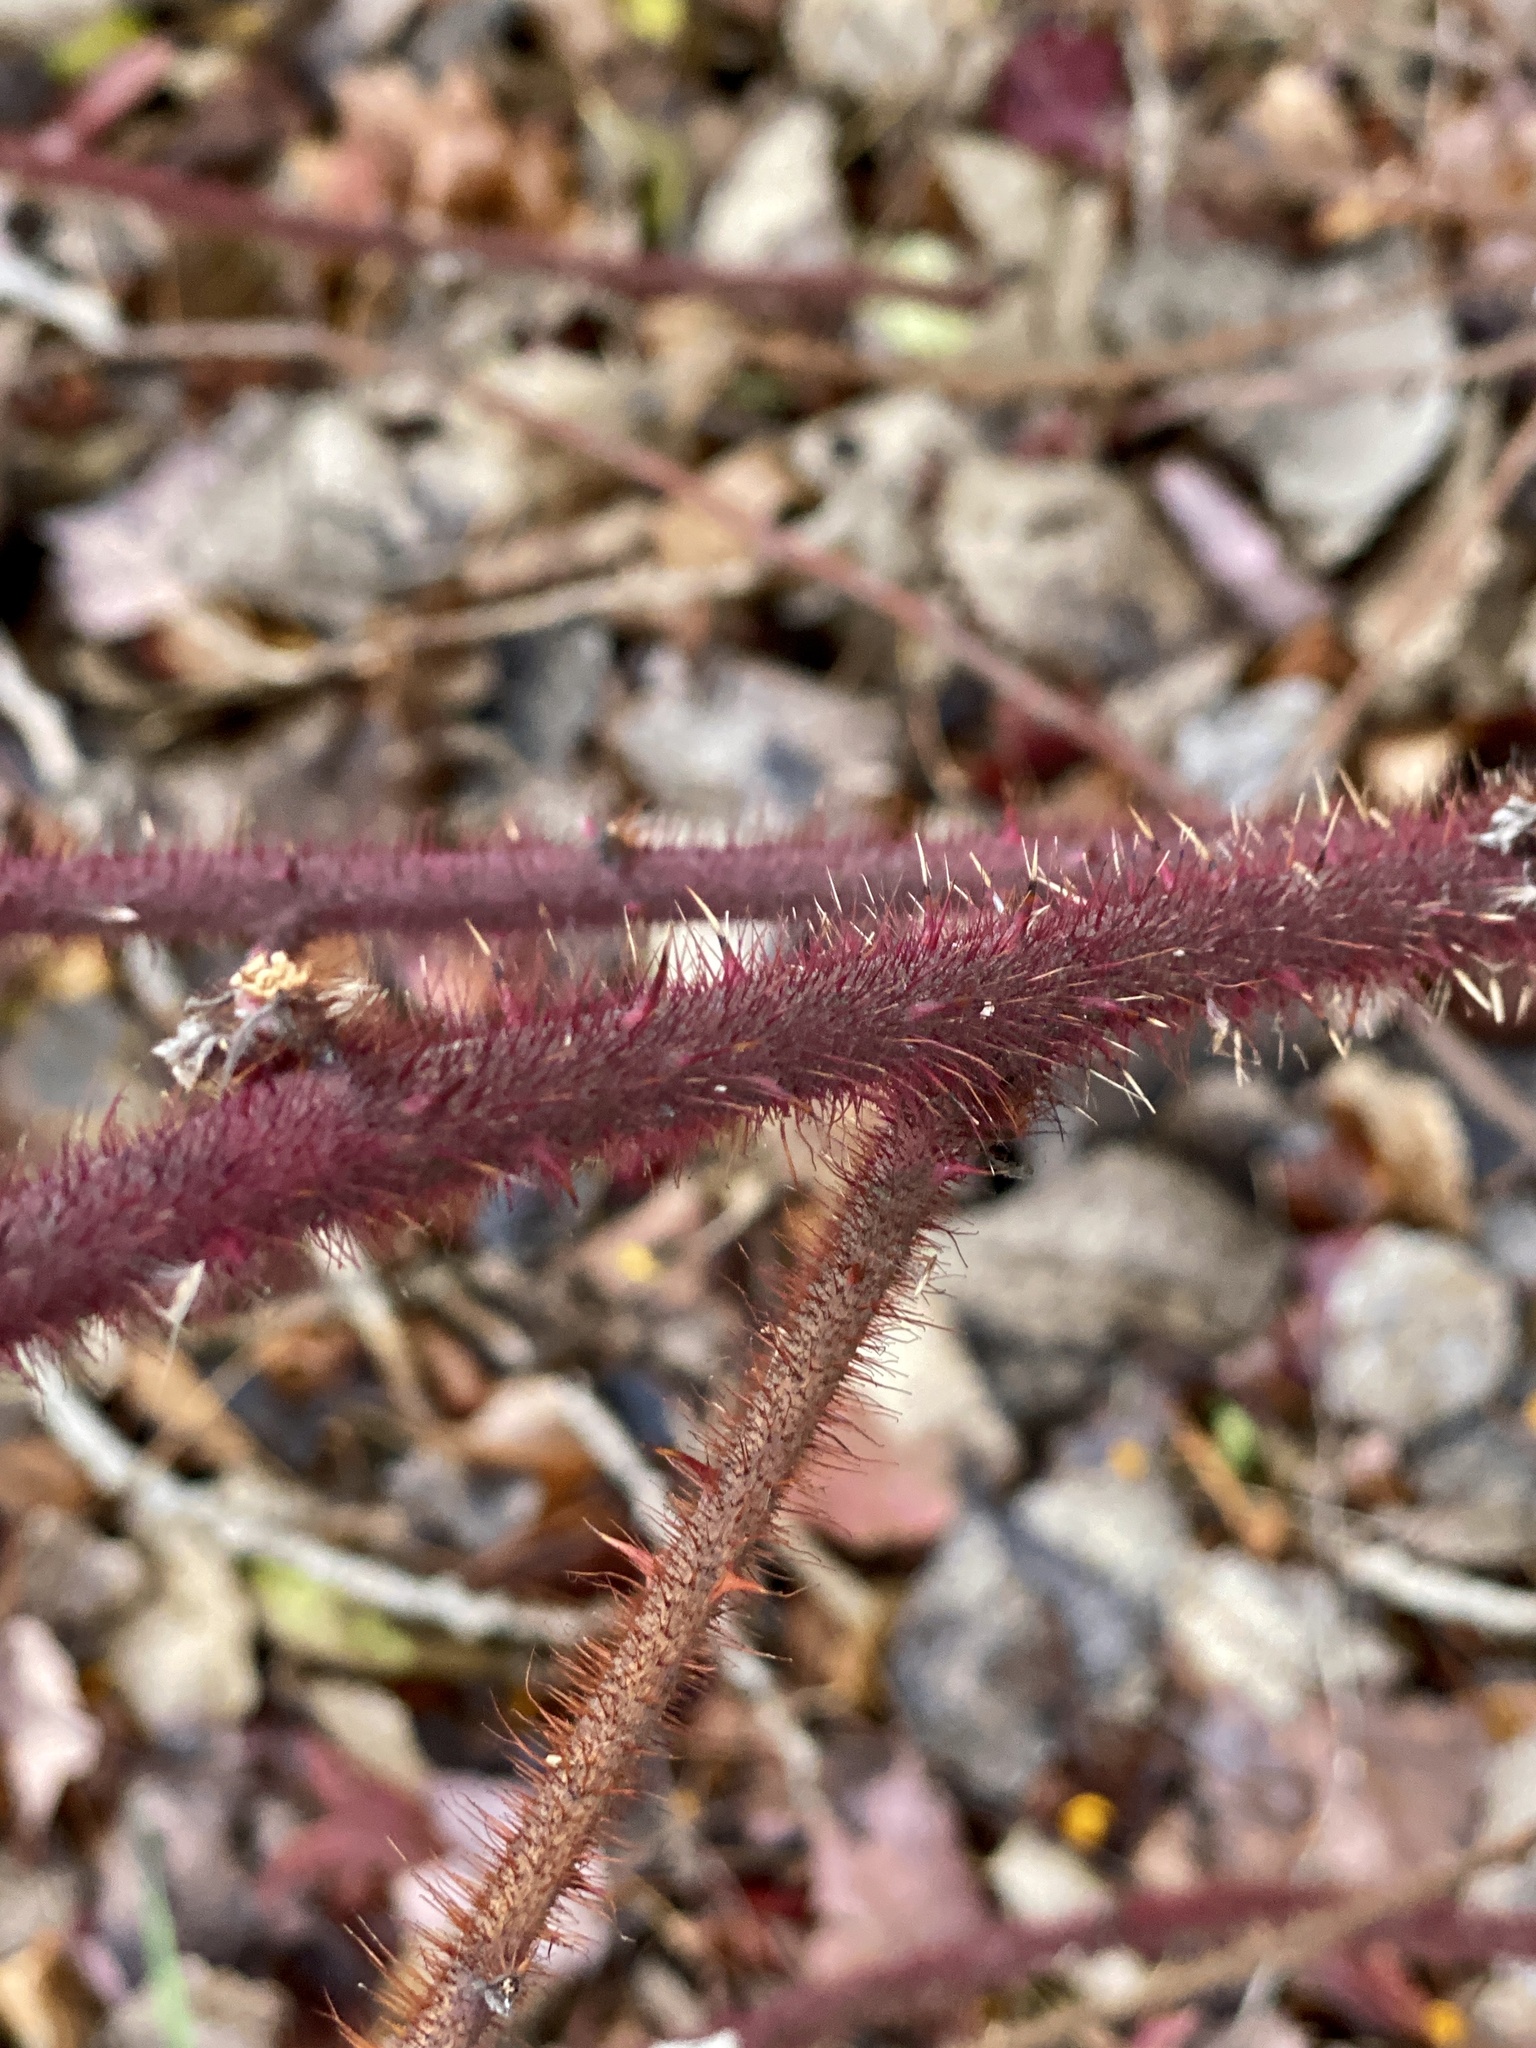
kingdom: Plantae
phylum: Tracheophyta
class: Magnoliopsida
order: Rosales
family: Rosaceae
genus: Rubus
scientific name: Rubus phoenicolasius
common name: Japanese wineberry
